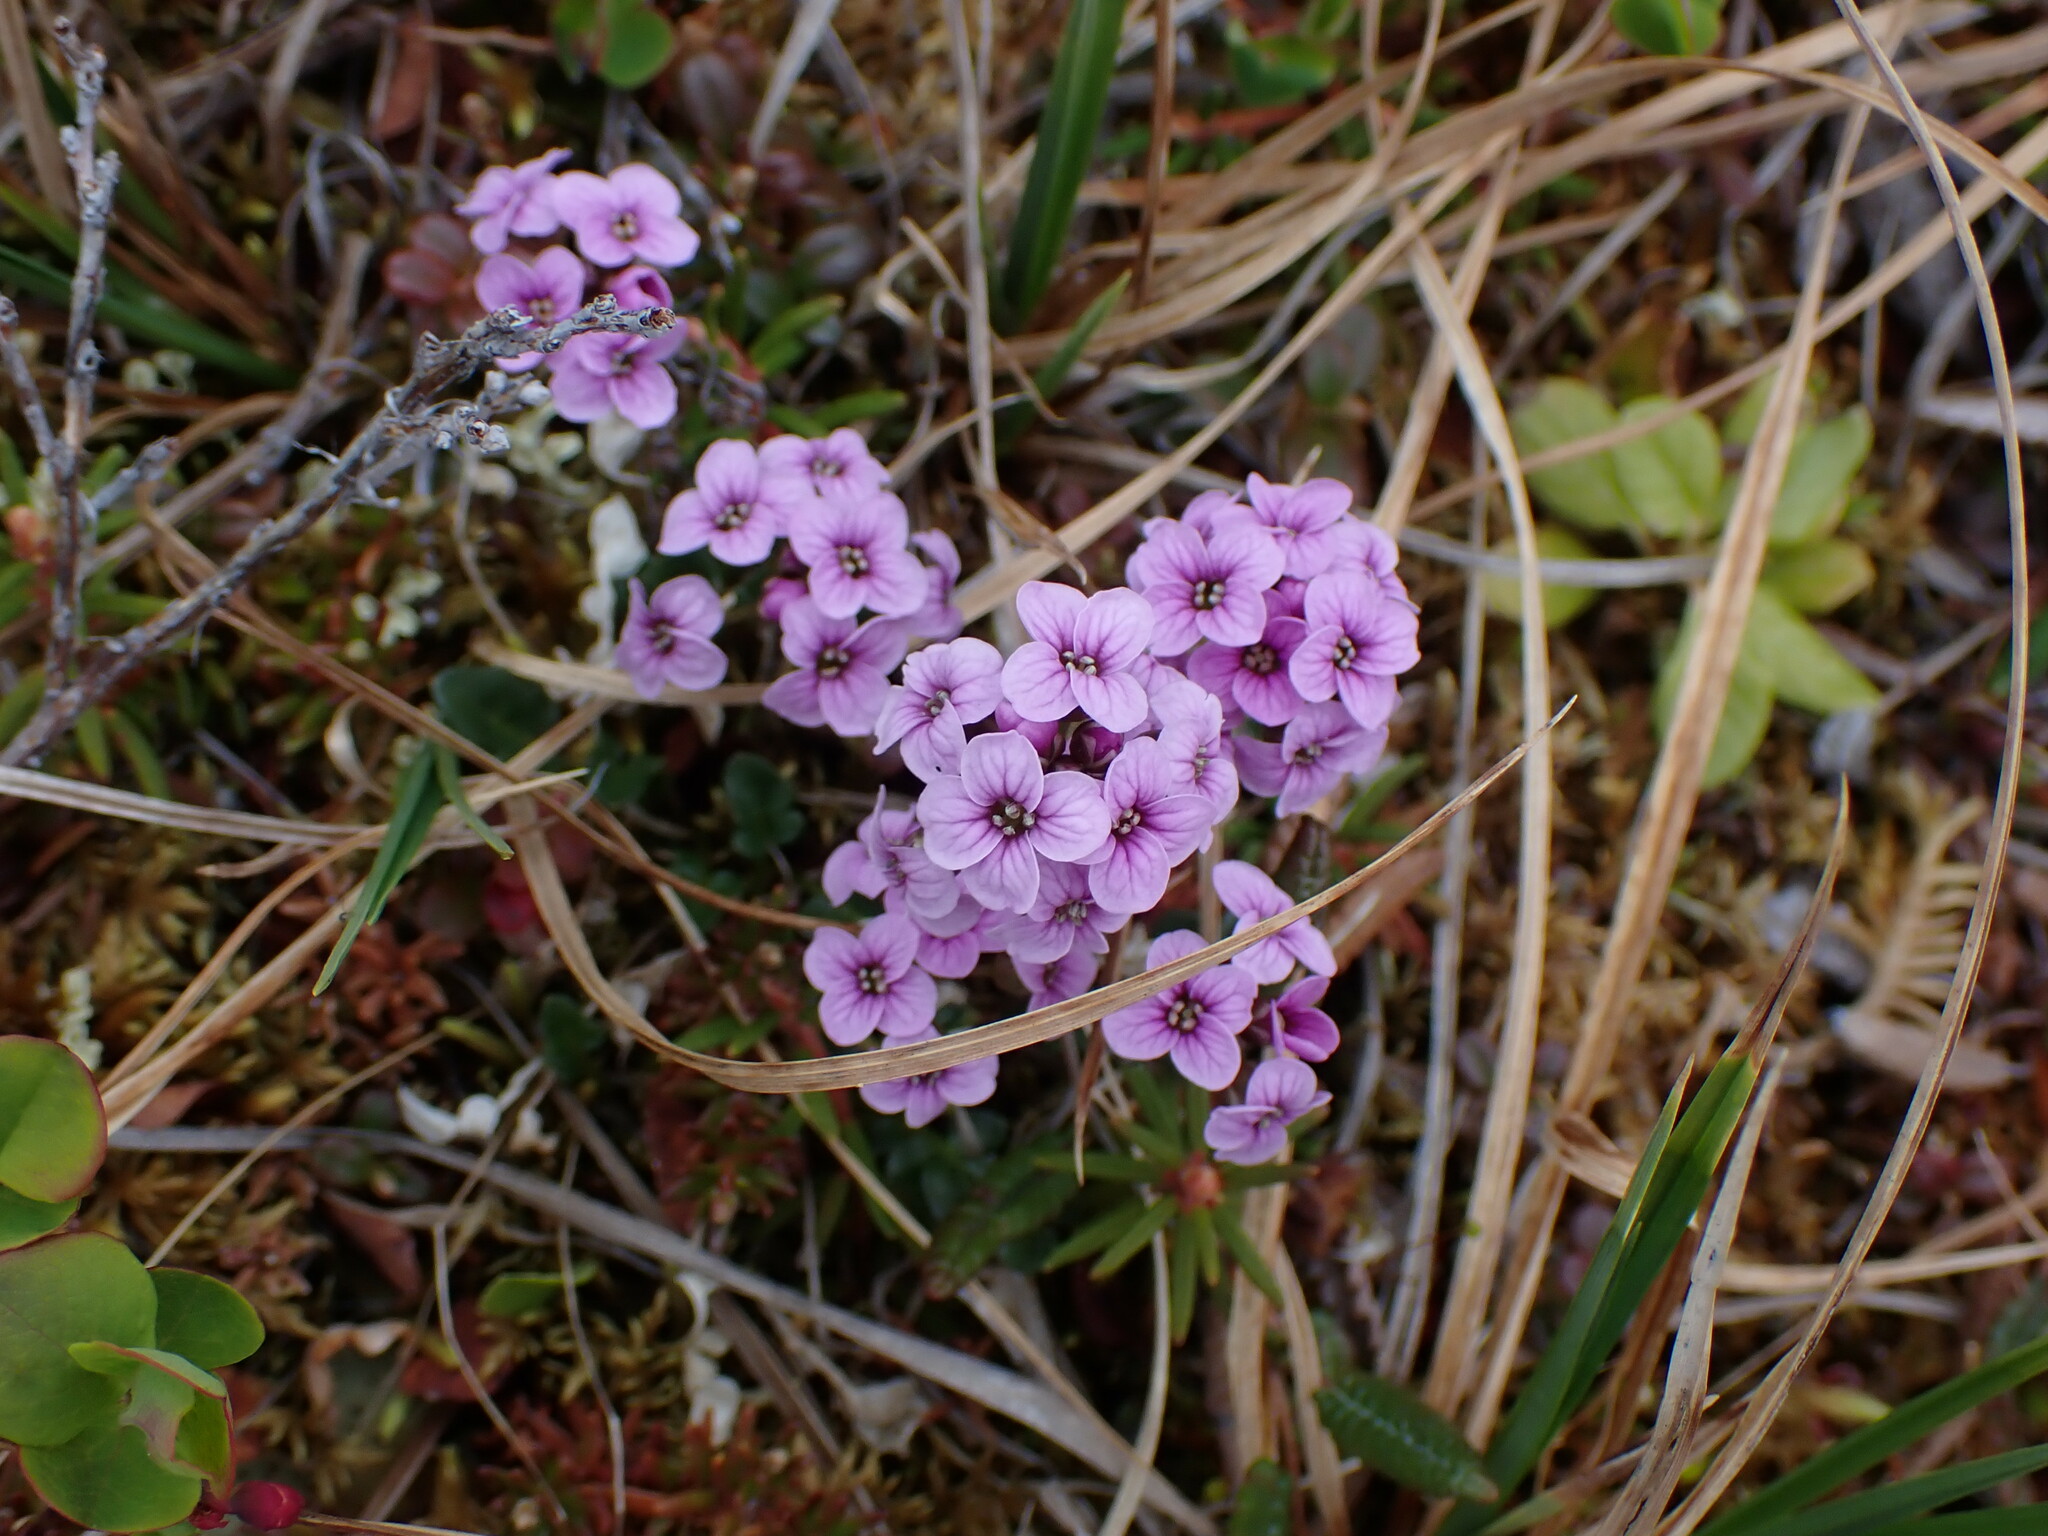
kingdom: Plantae
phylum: Tracheophyta
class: Magnoliopsida
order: Brassicales
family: Brassicaceae
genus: Cardamine
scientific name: Cardamine purpurea
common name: Purple bittercress
